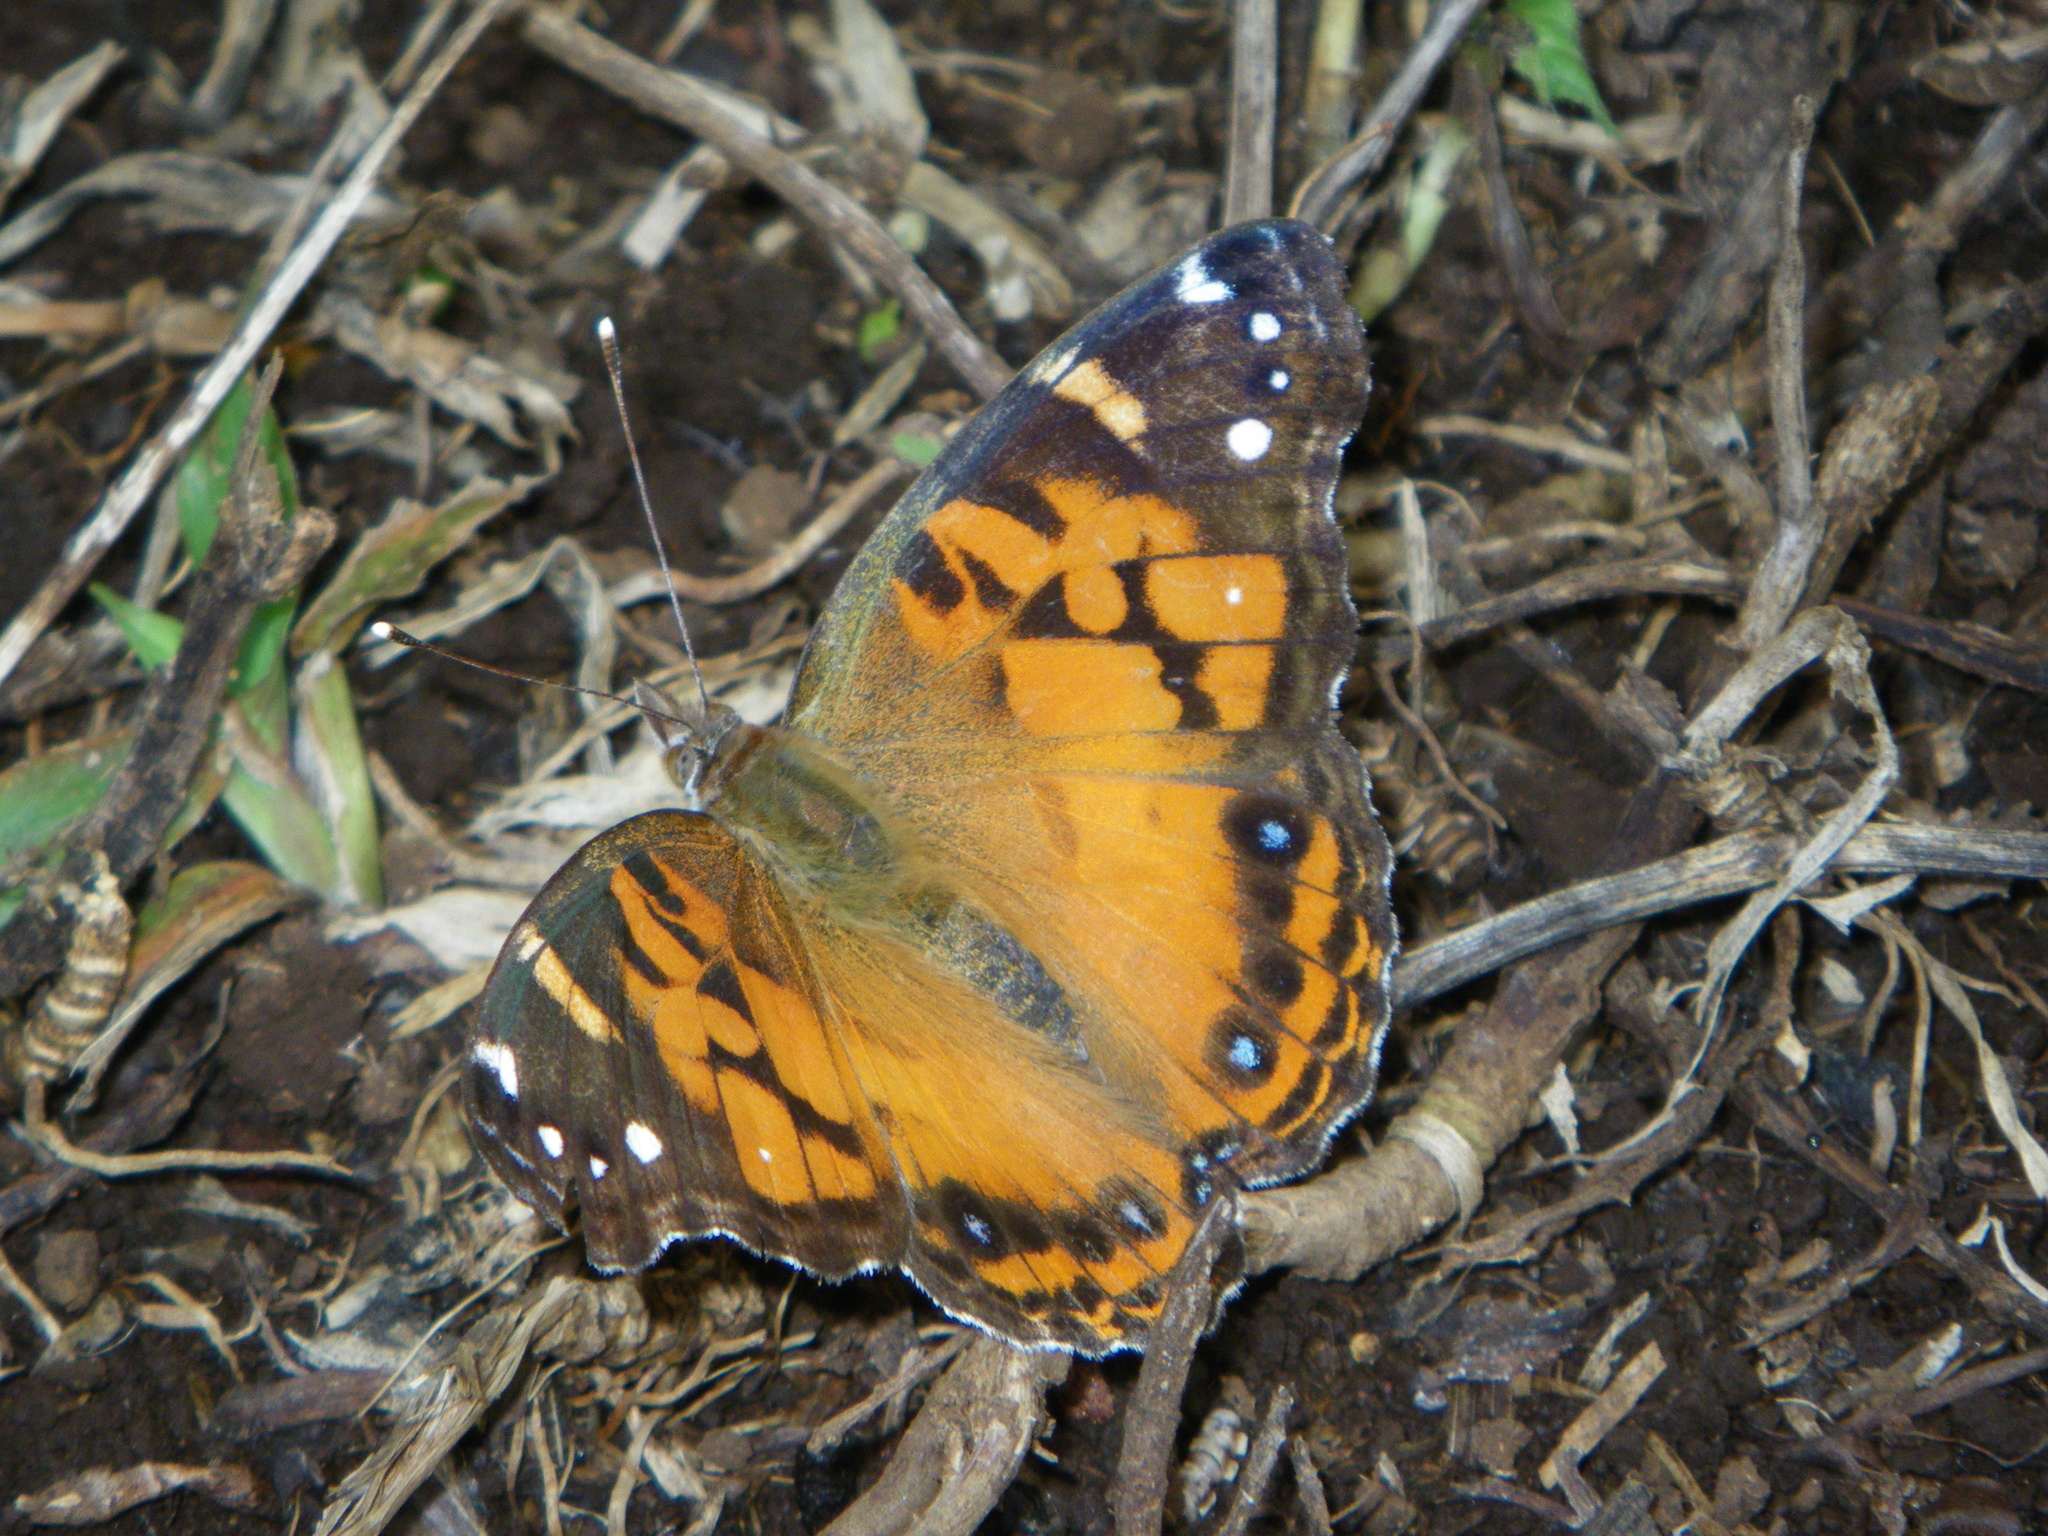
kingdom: Animalia
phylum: Arthropoda
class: Insecta
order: Lepidoptera
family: Nymphalidae
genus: Vanessa
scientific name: Vanessa virginiensis
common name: American lady
